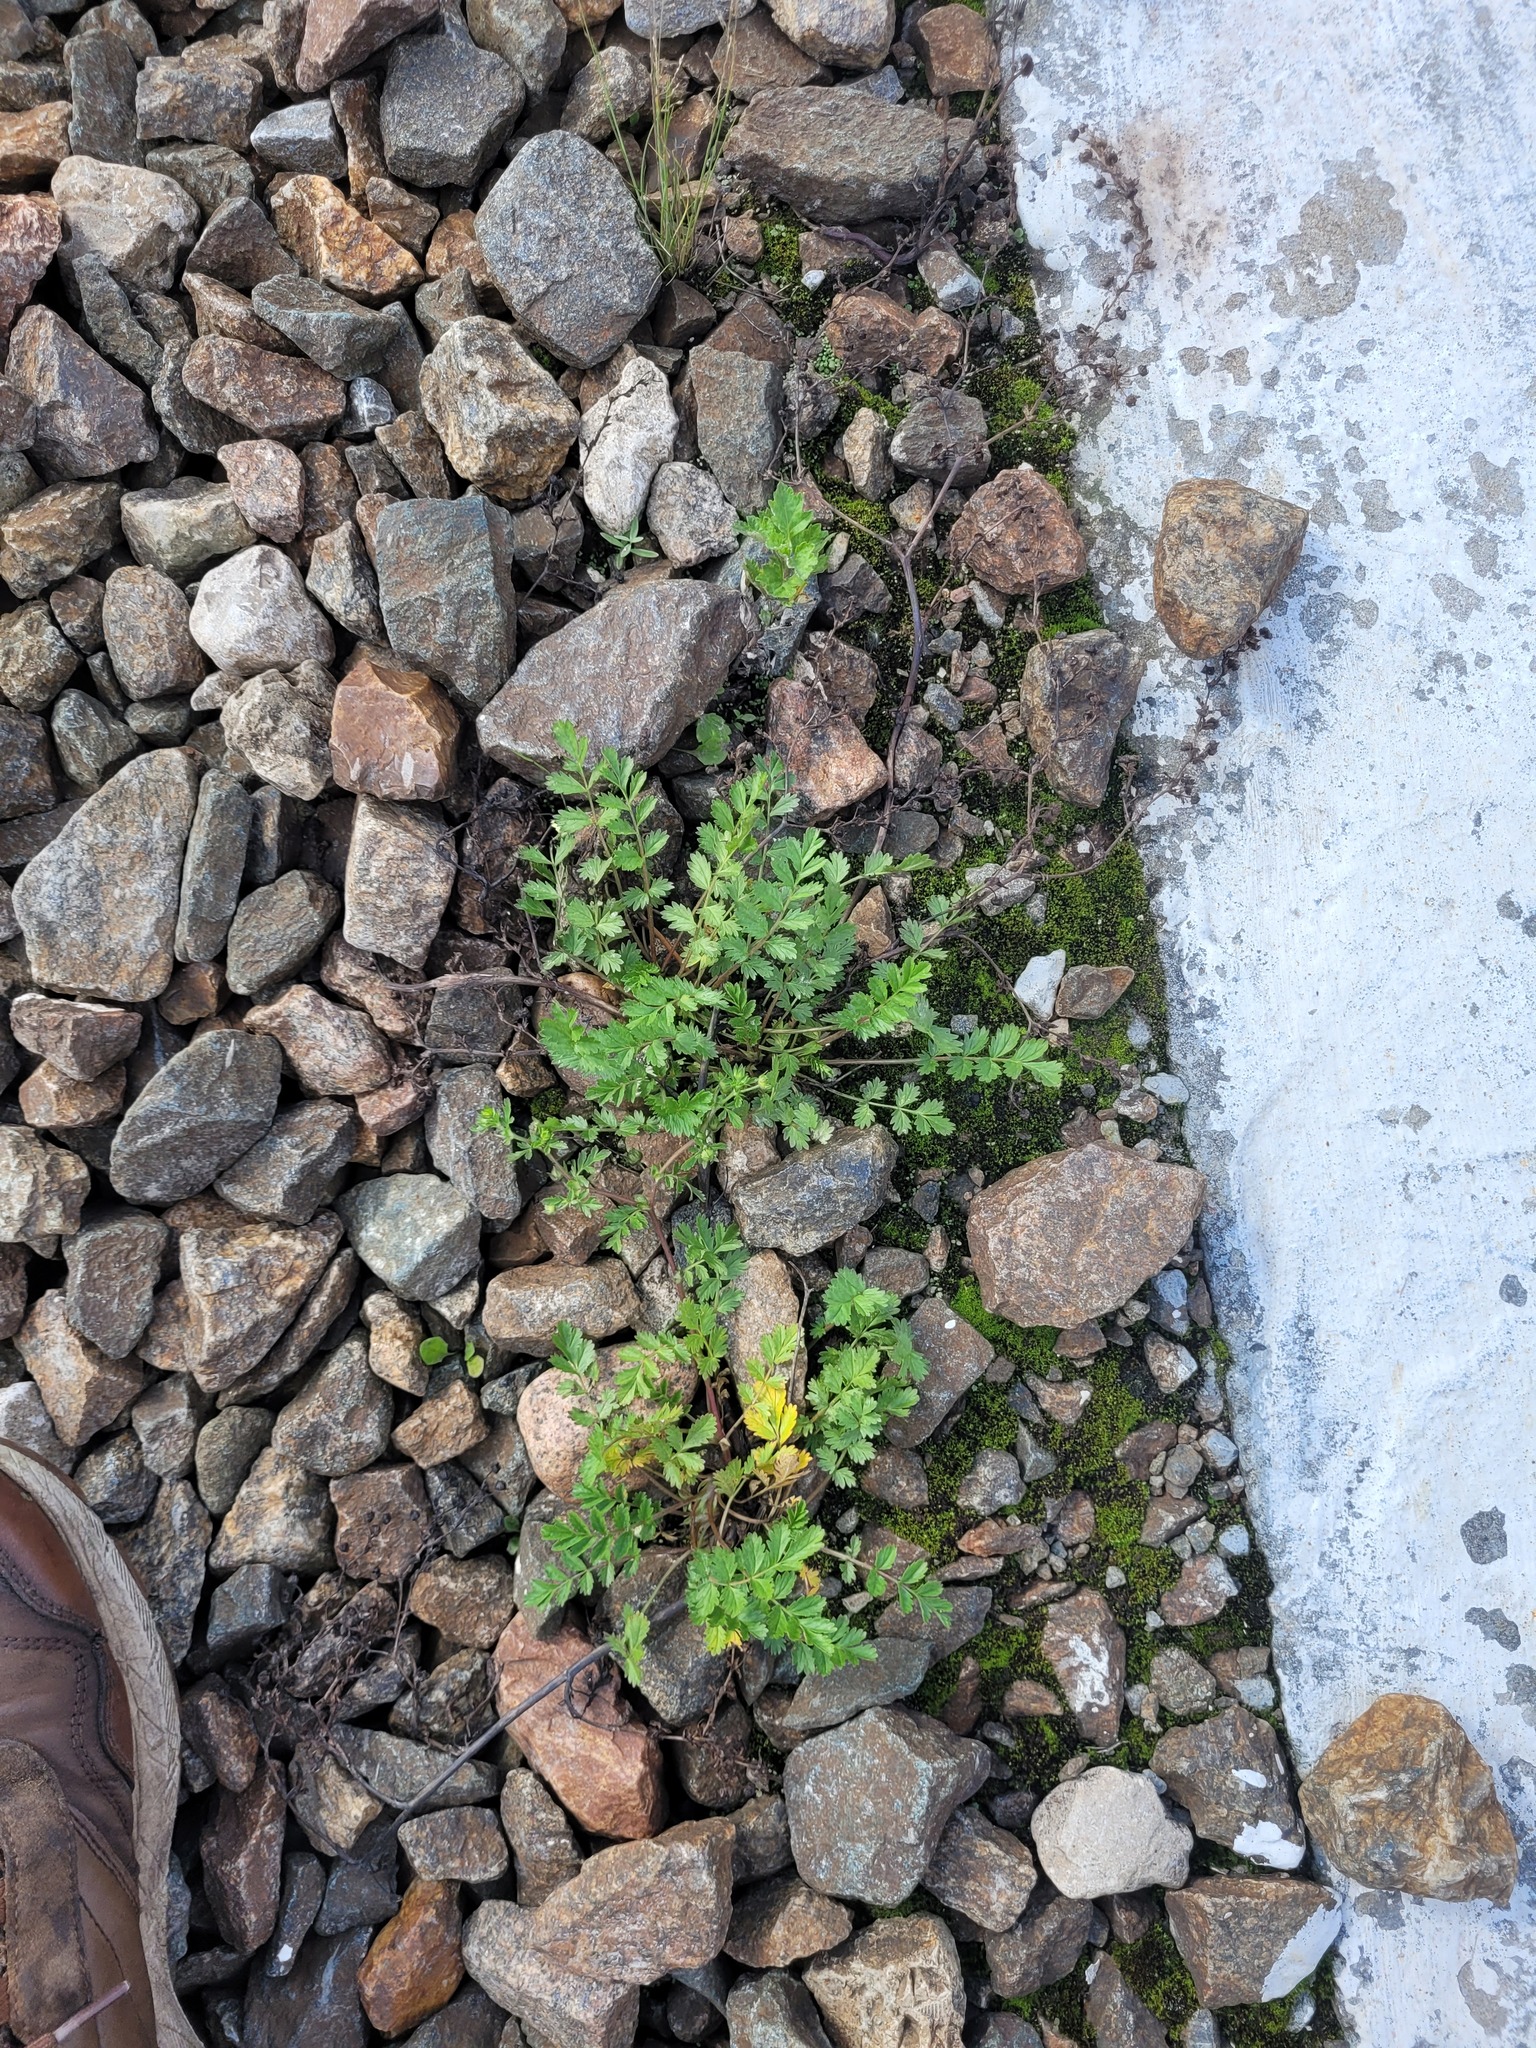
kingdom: Plantae
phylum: Tracheophyta
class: Magnoliopsida
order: Rosales
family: Rosaceae
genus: Potentilla
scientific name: Potentilla supina
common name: Prostrate cinquefoil
